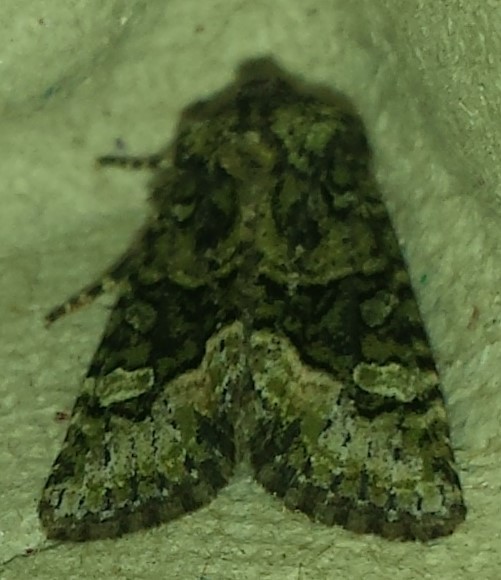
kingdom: Animalia
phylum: Arthropoda
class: Insecta
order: Lepidoptera
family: Noctuidae
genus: Lacinipolia
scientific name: Lacinipolia olivacea
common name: Olive arches moth
